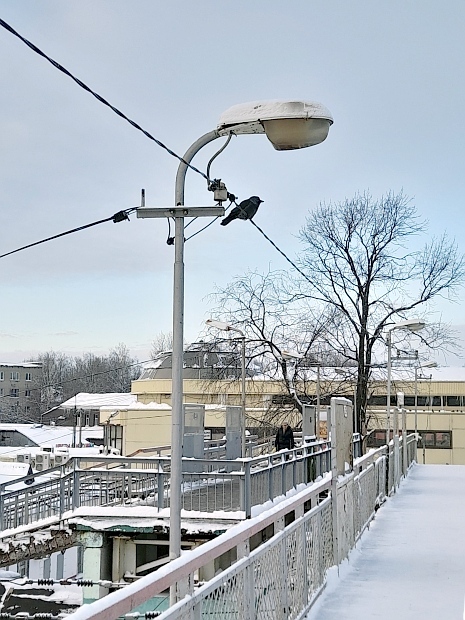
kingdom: Animalia
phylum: Chordata
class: Aves
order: Passeriformes
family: Corvidae
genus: Coloeus
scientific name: Coloeus monedula
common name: Western jackdaw
